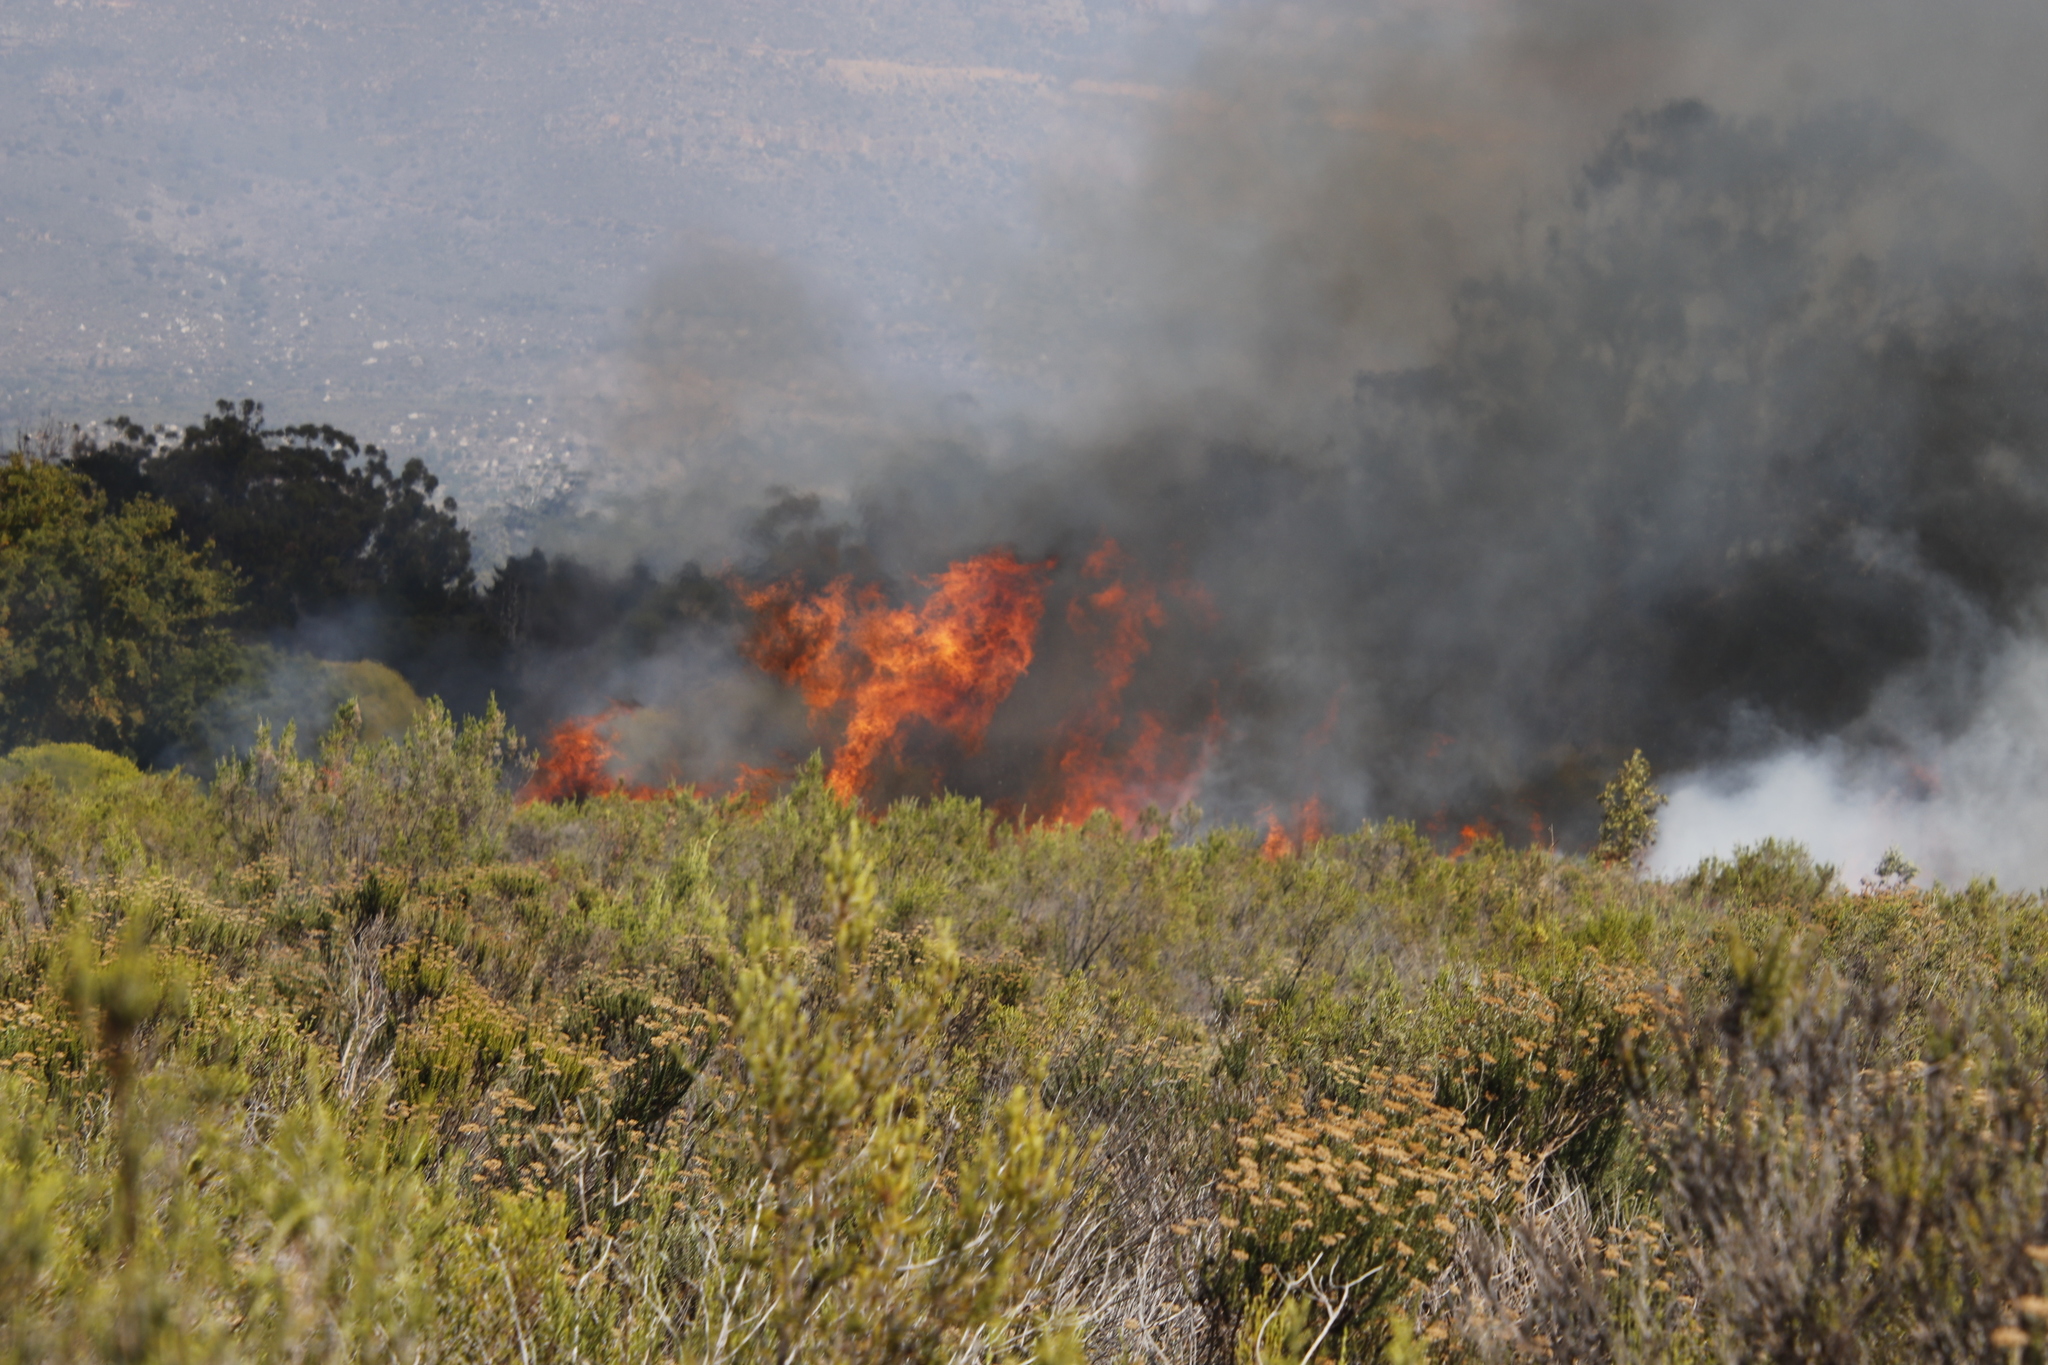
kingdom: Plantae
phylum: Tracheophyta
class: Magnoliopsida
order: Asterales
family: Asteraceae
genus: Metalasia
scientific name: Metalasia densa
